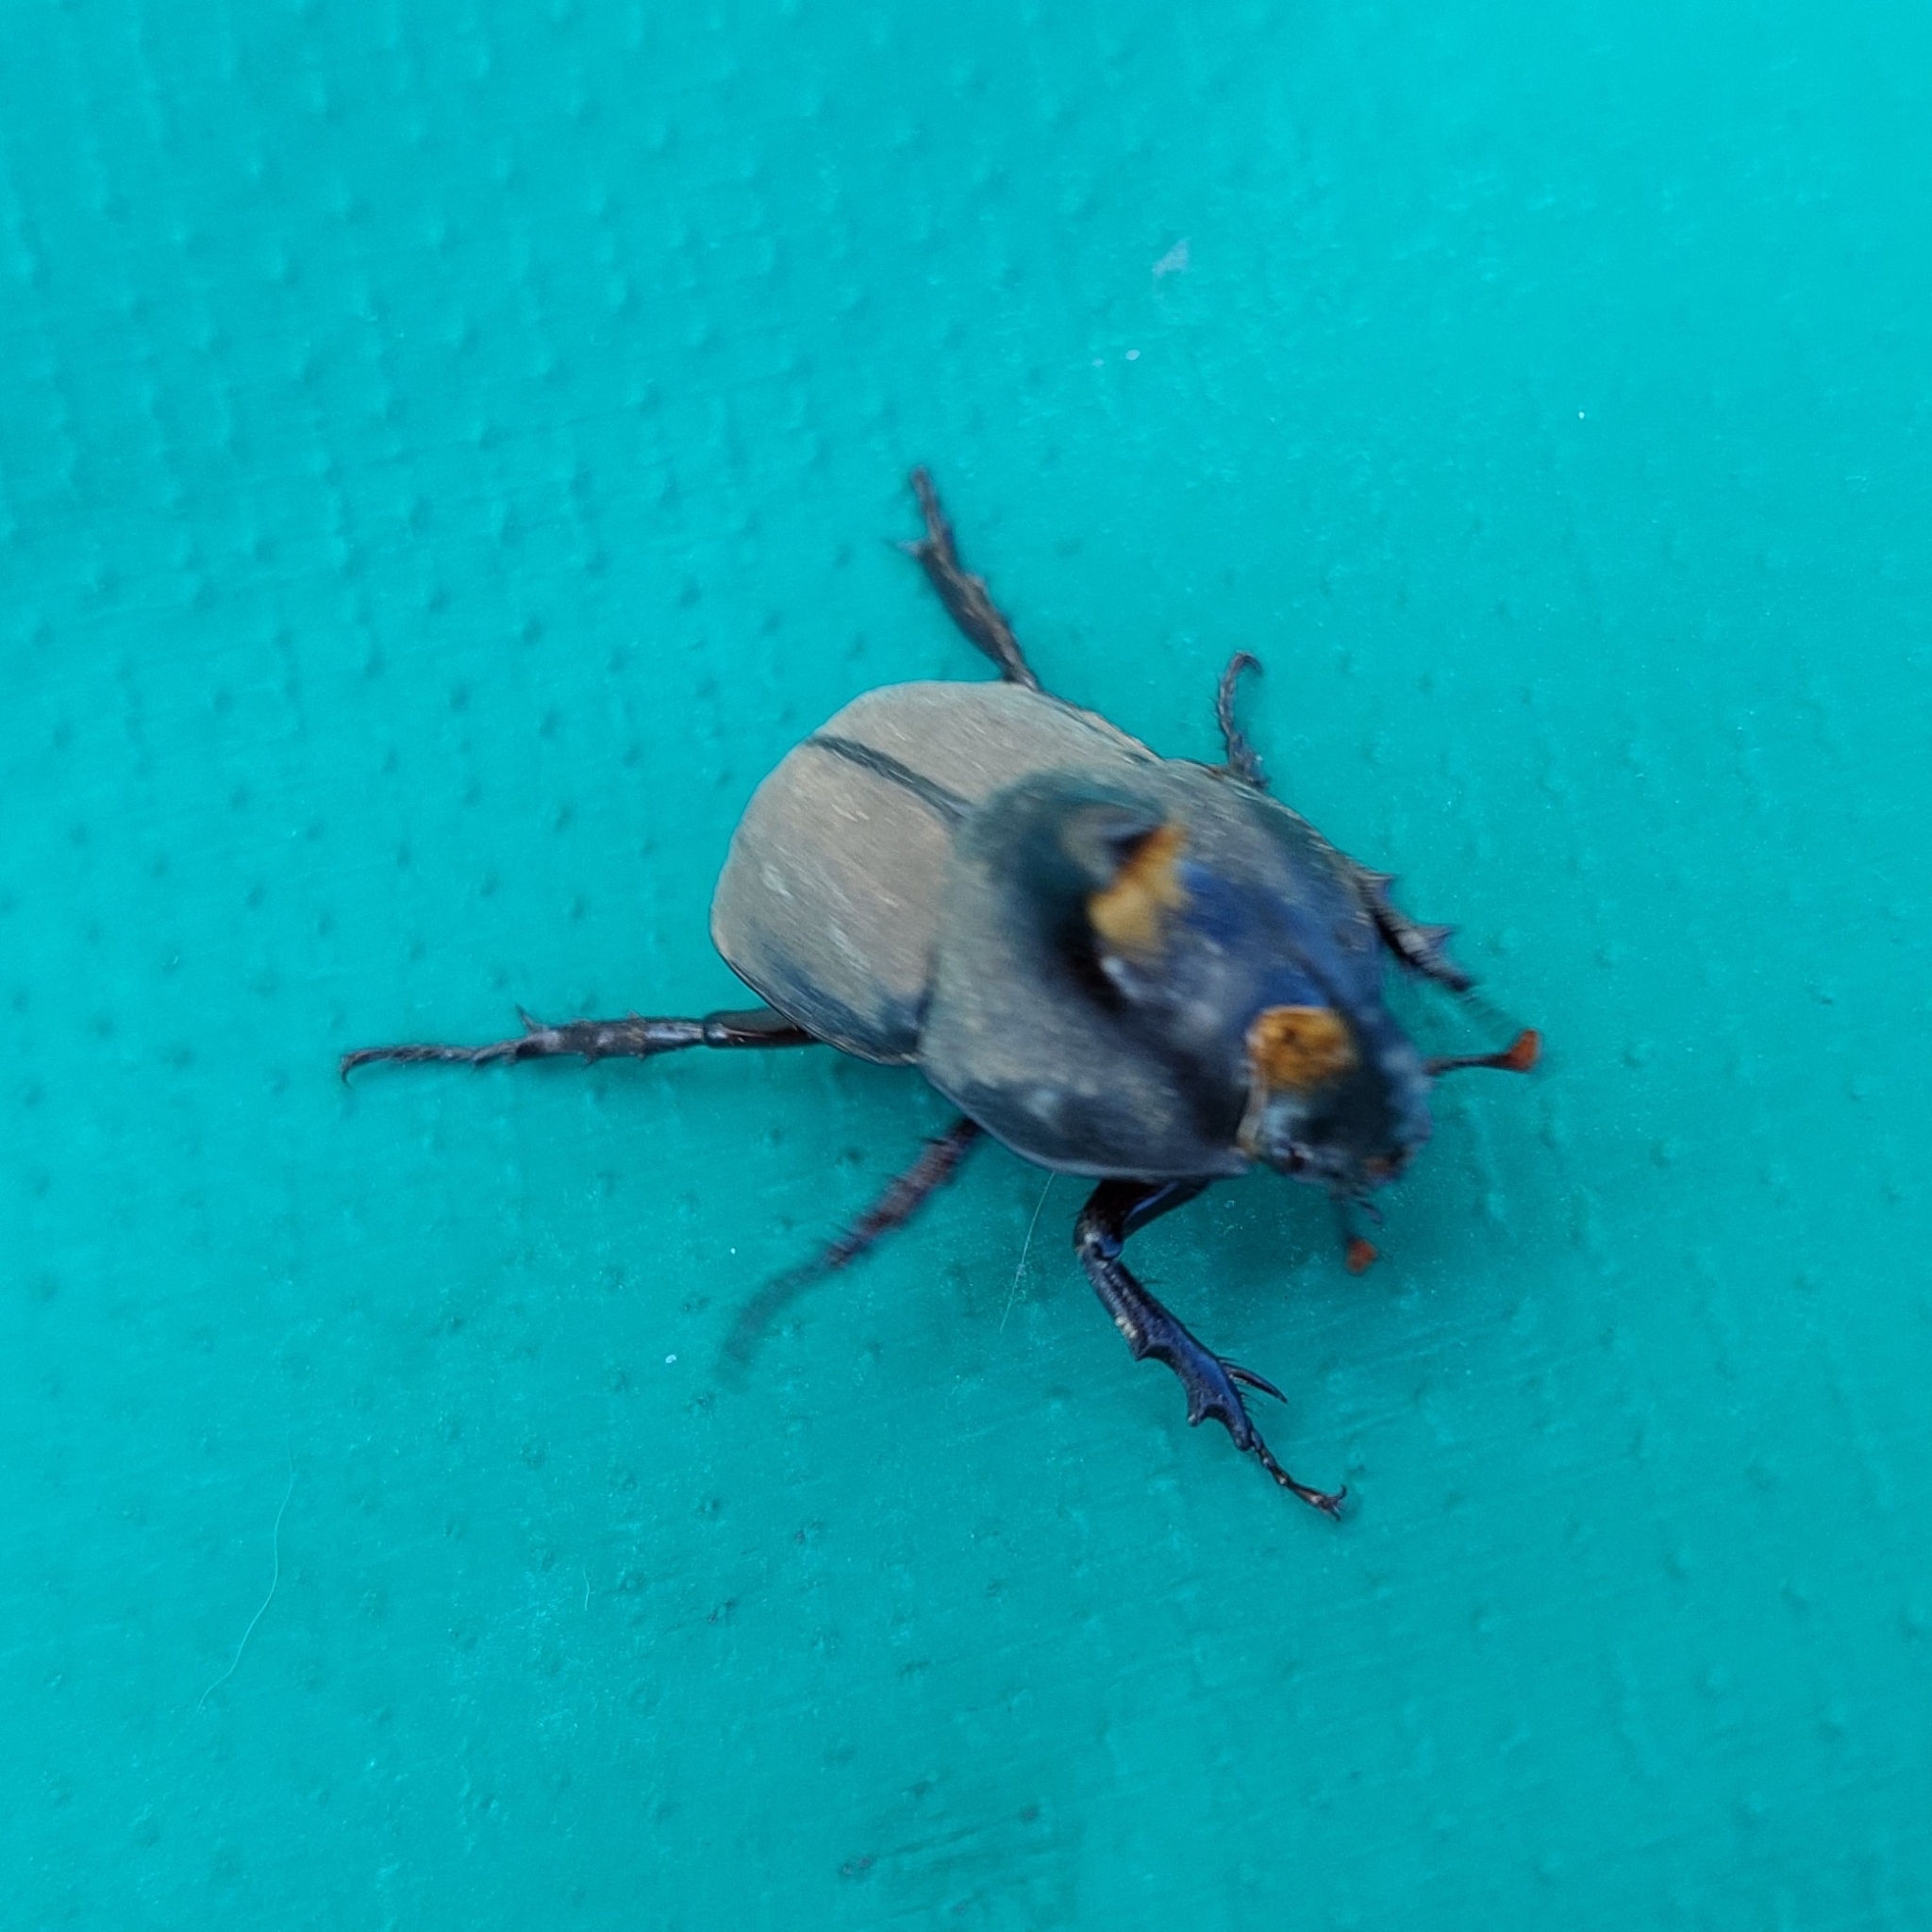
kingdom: Animalia
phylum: Arthropoda
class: Insecta
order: Coleoptera
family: Scarabaeidae
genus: Diloboderus
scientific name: Diloboderus abderus
